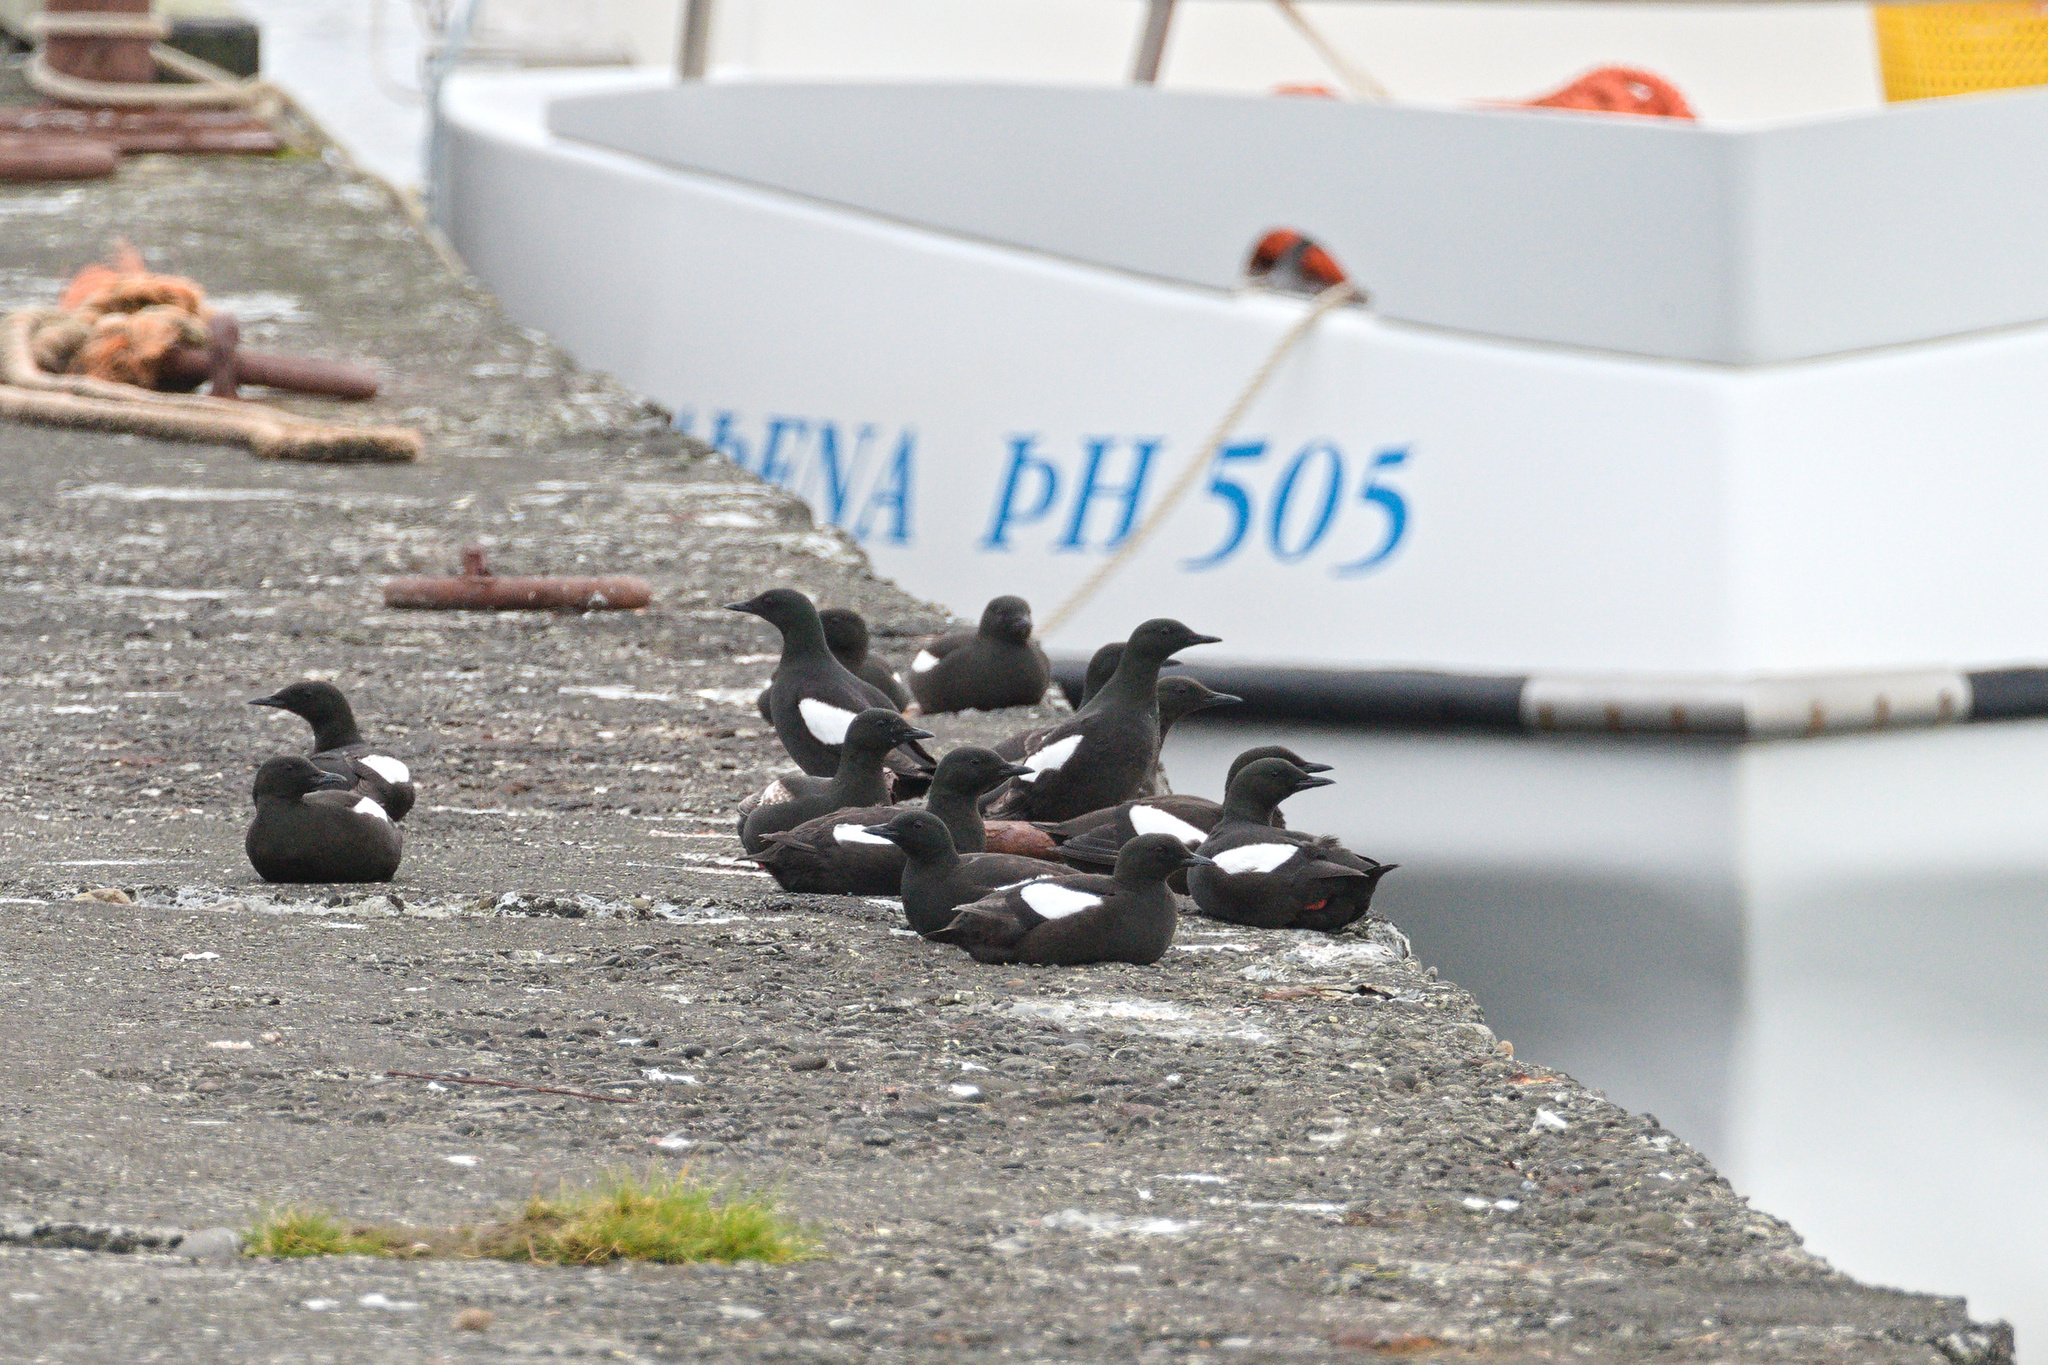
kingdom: Animalia
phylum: Chordata
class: Aves
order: Charadriiformes
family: Alcidae
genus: Cepphus
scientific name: Cepphus grylle
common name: Black guillemot
